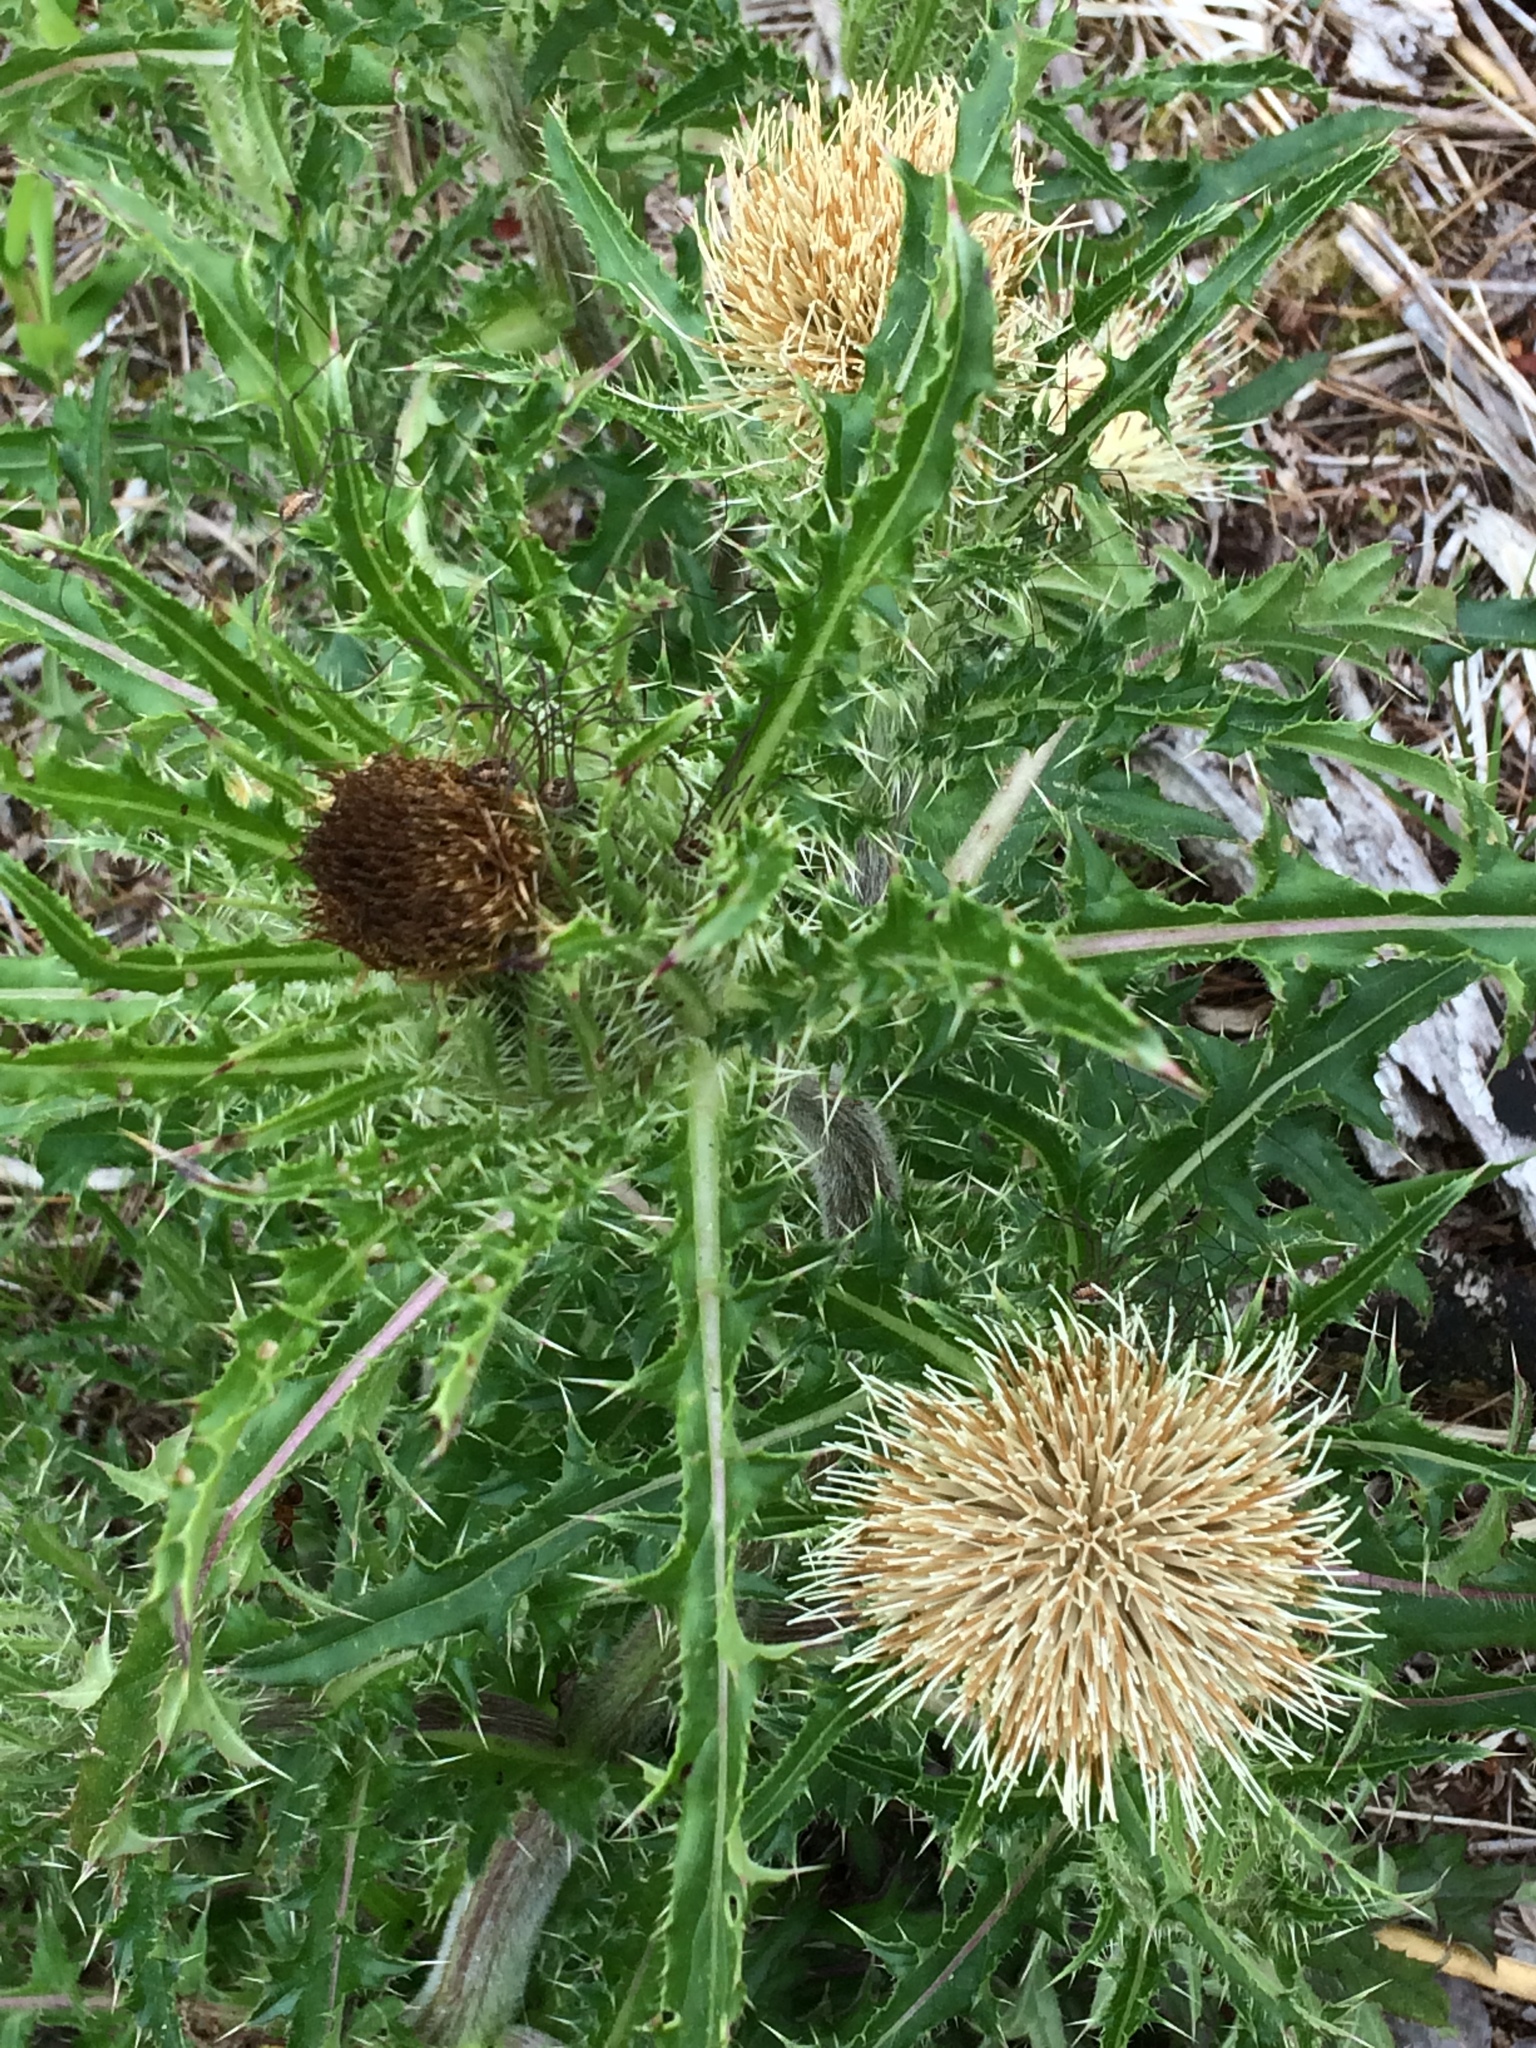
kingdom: Plantae
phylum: Tracheophyta
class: Magnoliopsida
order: Asterales
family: Asteraceae
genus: Cirsium
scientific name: Cirsium horridulum
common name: Bristly thistle
